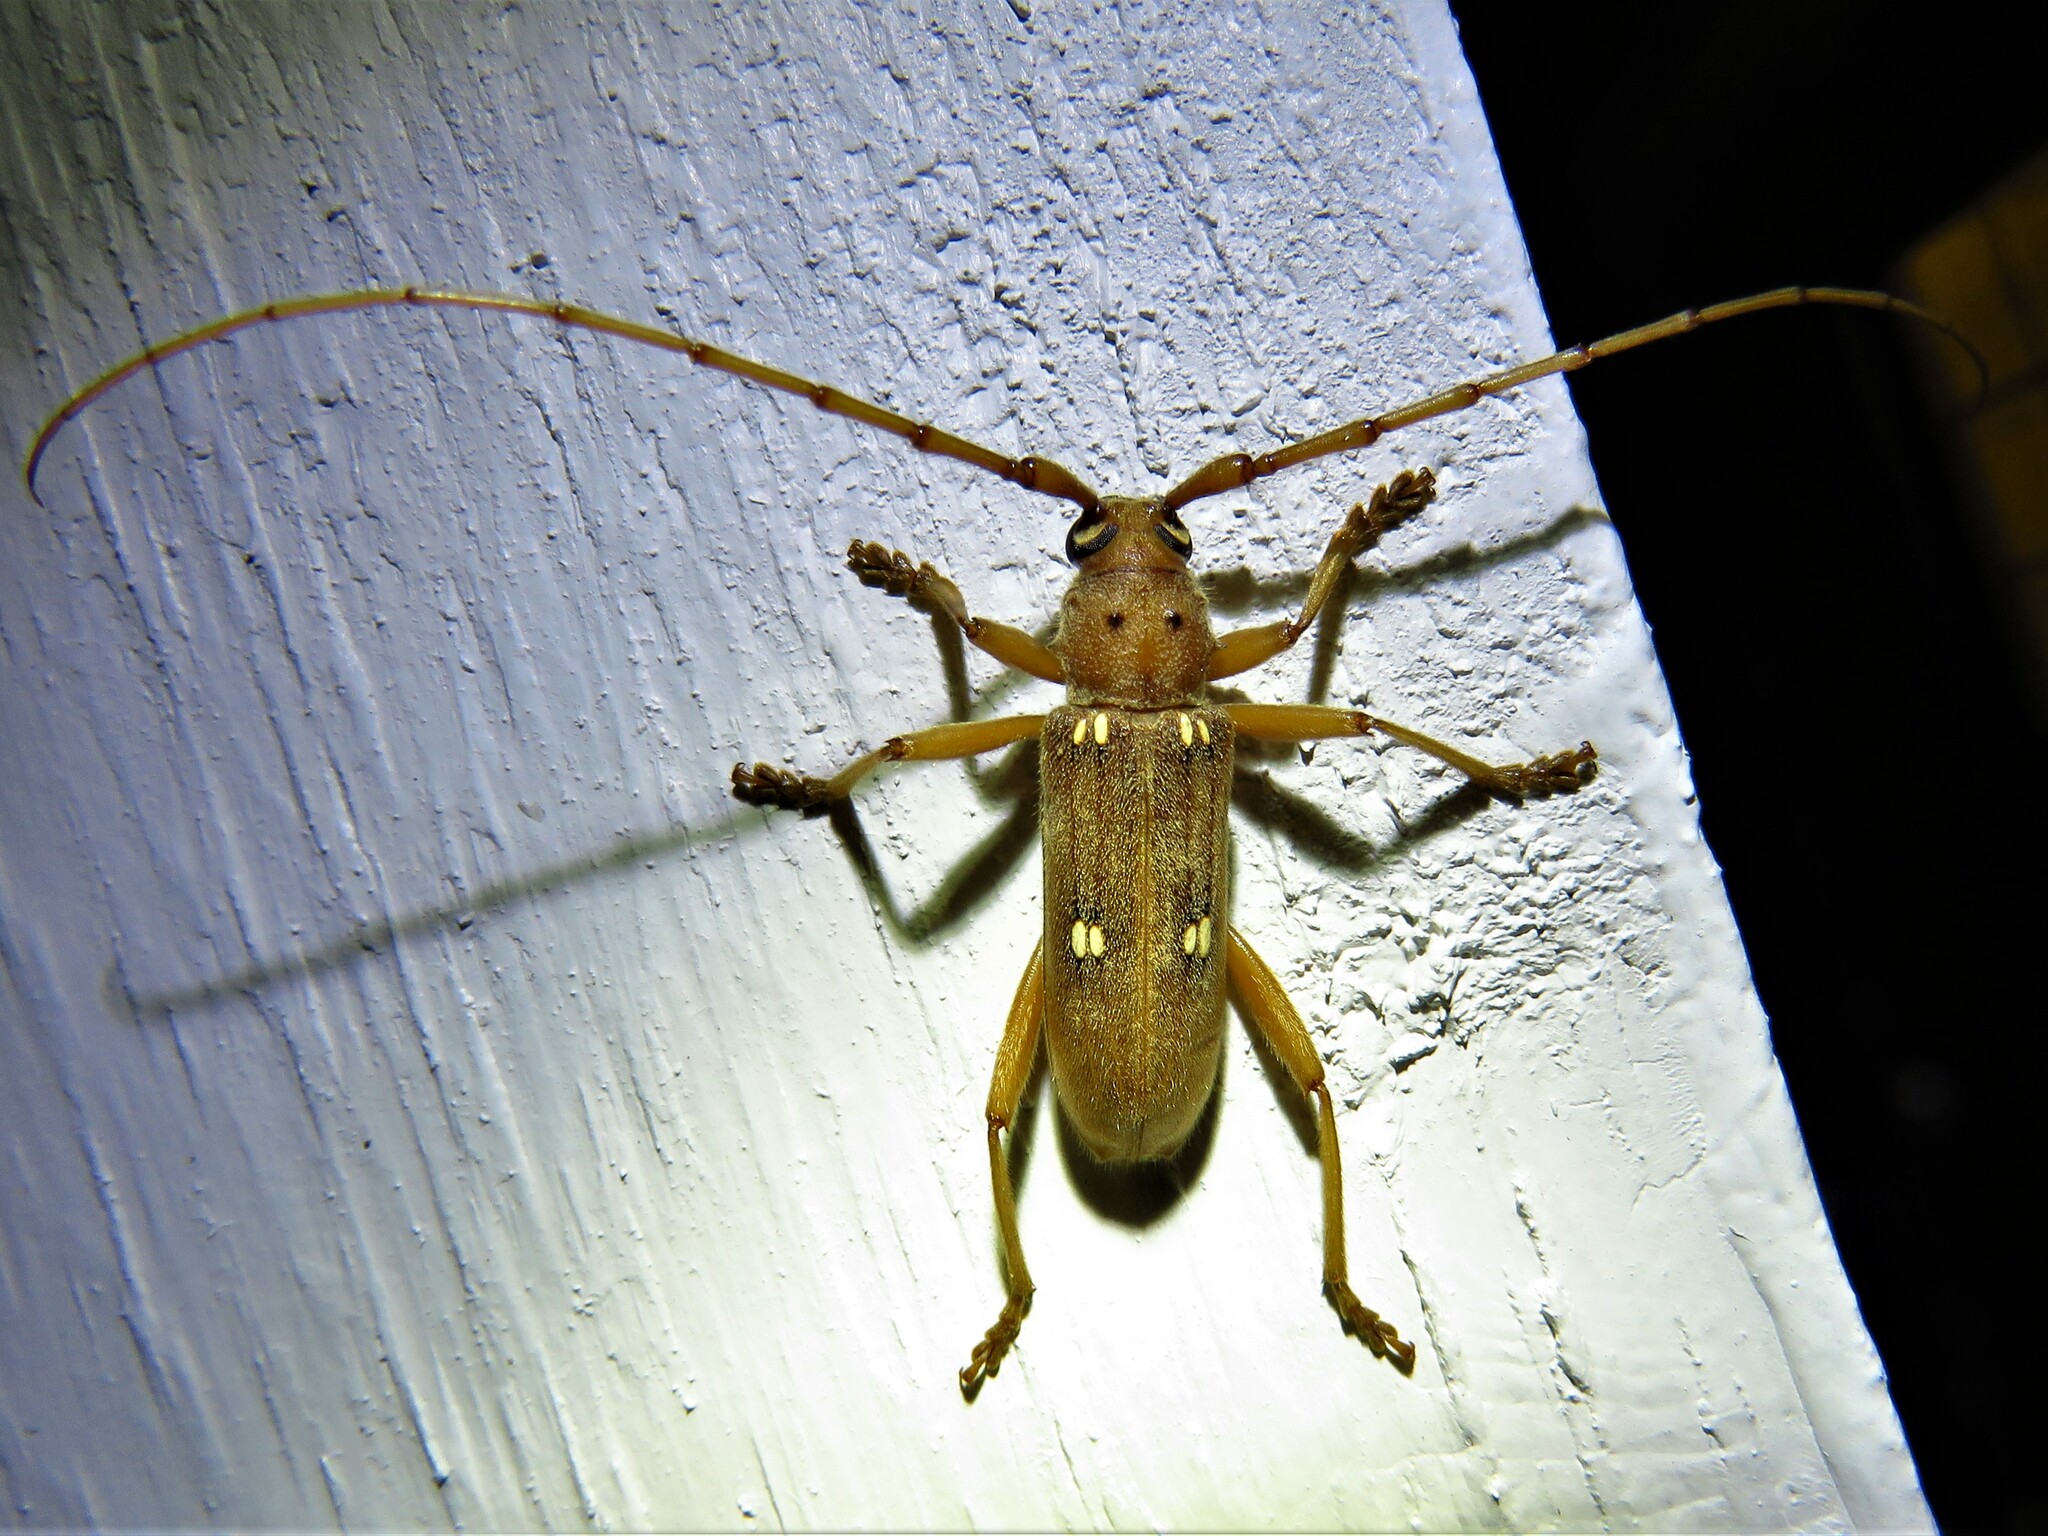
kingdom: Animalia
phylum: Arthropoda
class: Insecta
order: Coleoptera
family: Cerambycidae
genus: Eburia
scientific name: Eburia haldemani
